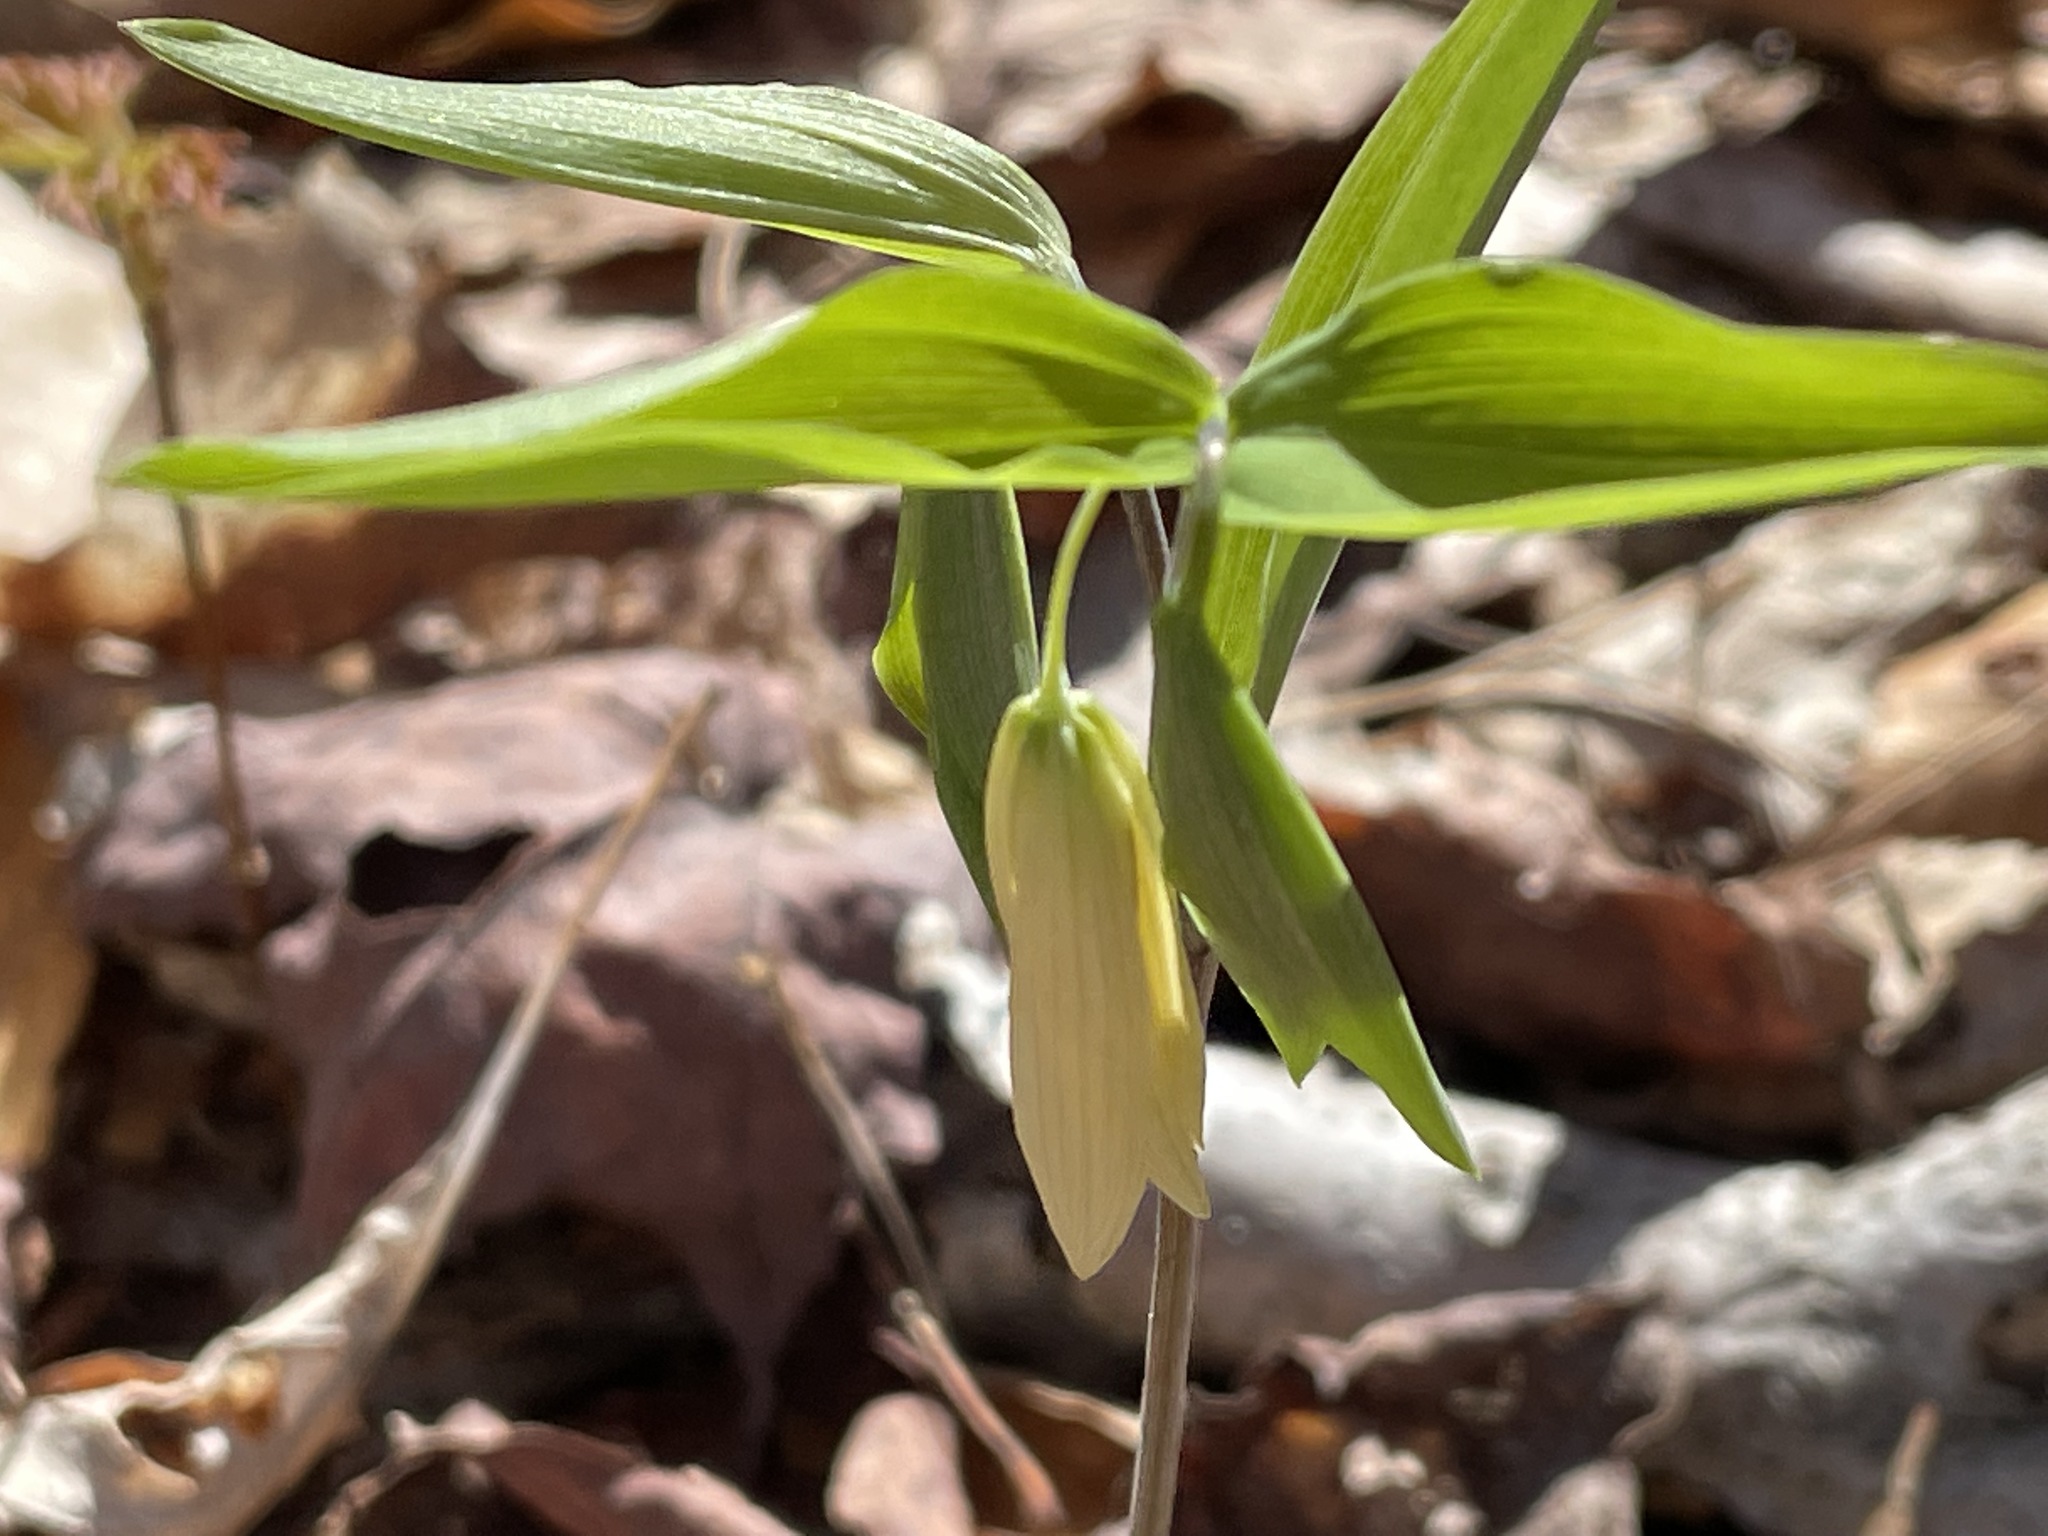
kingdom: Plantae
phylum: Tracheophyta
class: Liliopsida
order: Liliales
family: Colchicaceae
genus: Uvularia
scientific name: Uvularia sessilifolia
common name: Straw-lily
